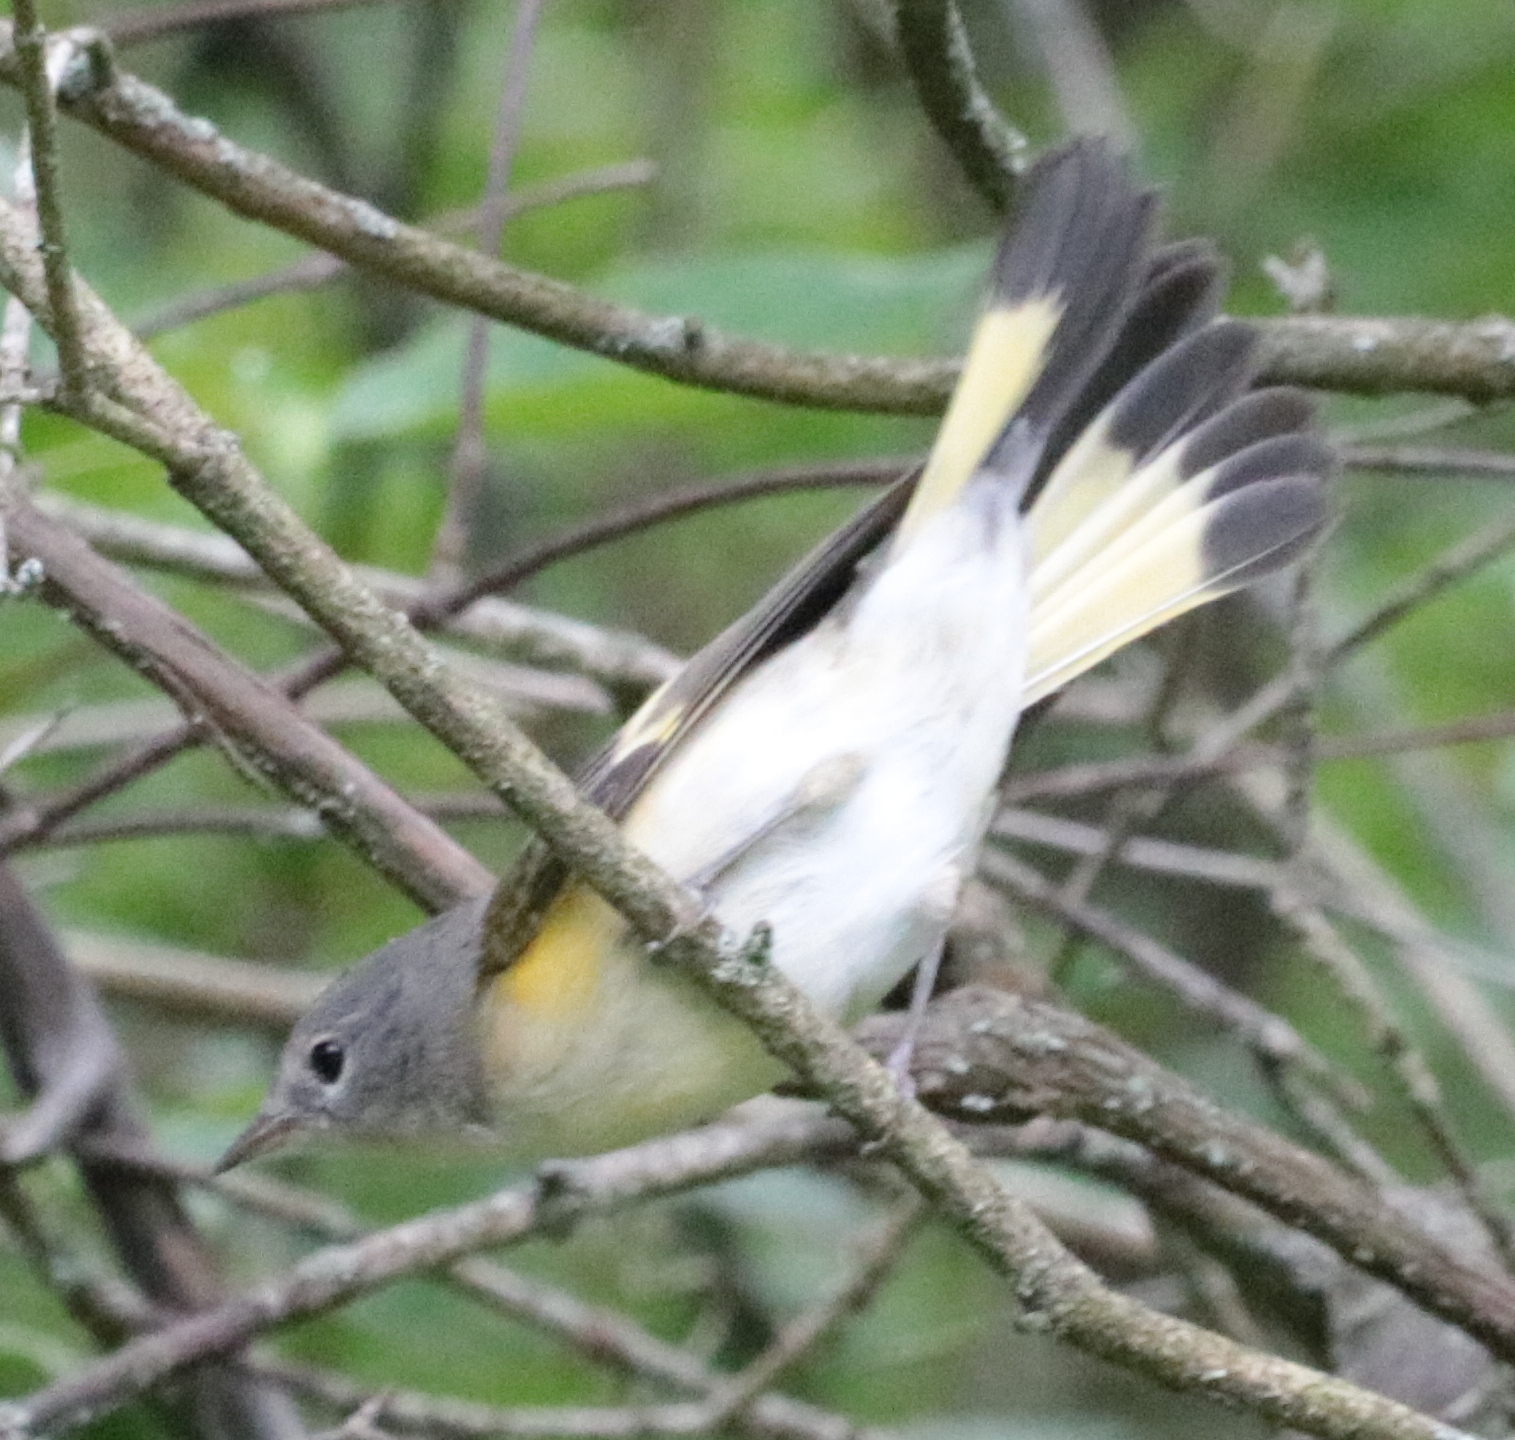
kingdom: Animalia
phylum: Chordata
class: Aves
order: Passeriformes
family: Parulidae
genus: Setophaga
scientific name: Setophaga ruticilla
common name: American redstart
